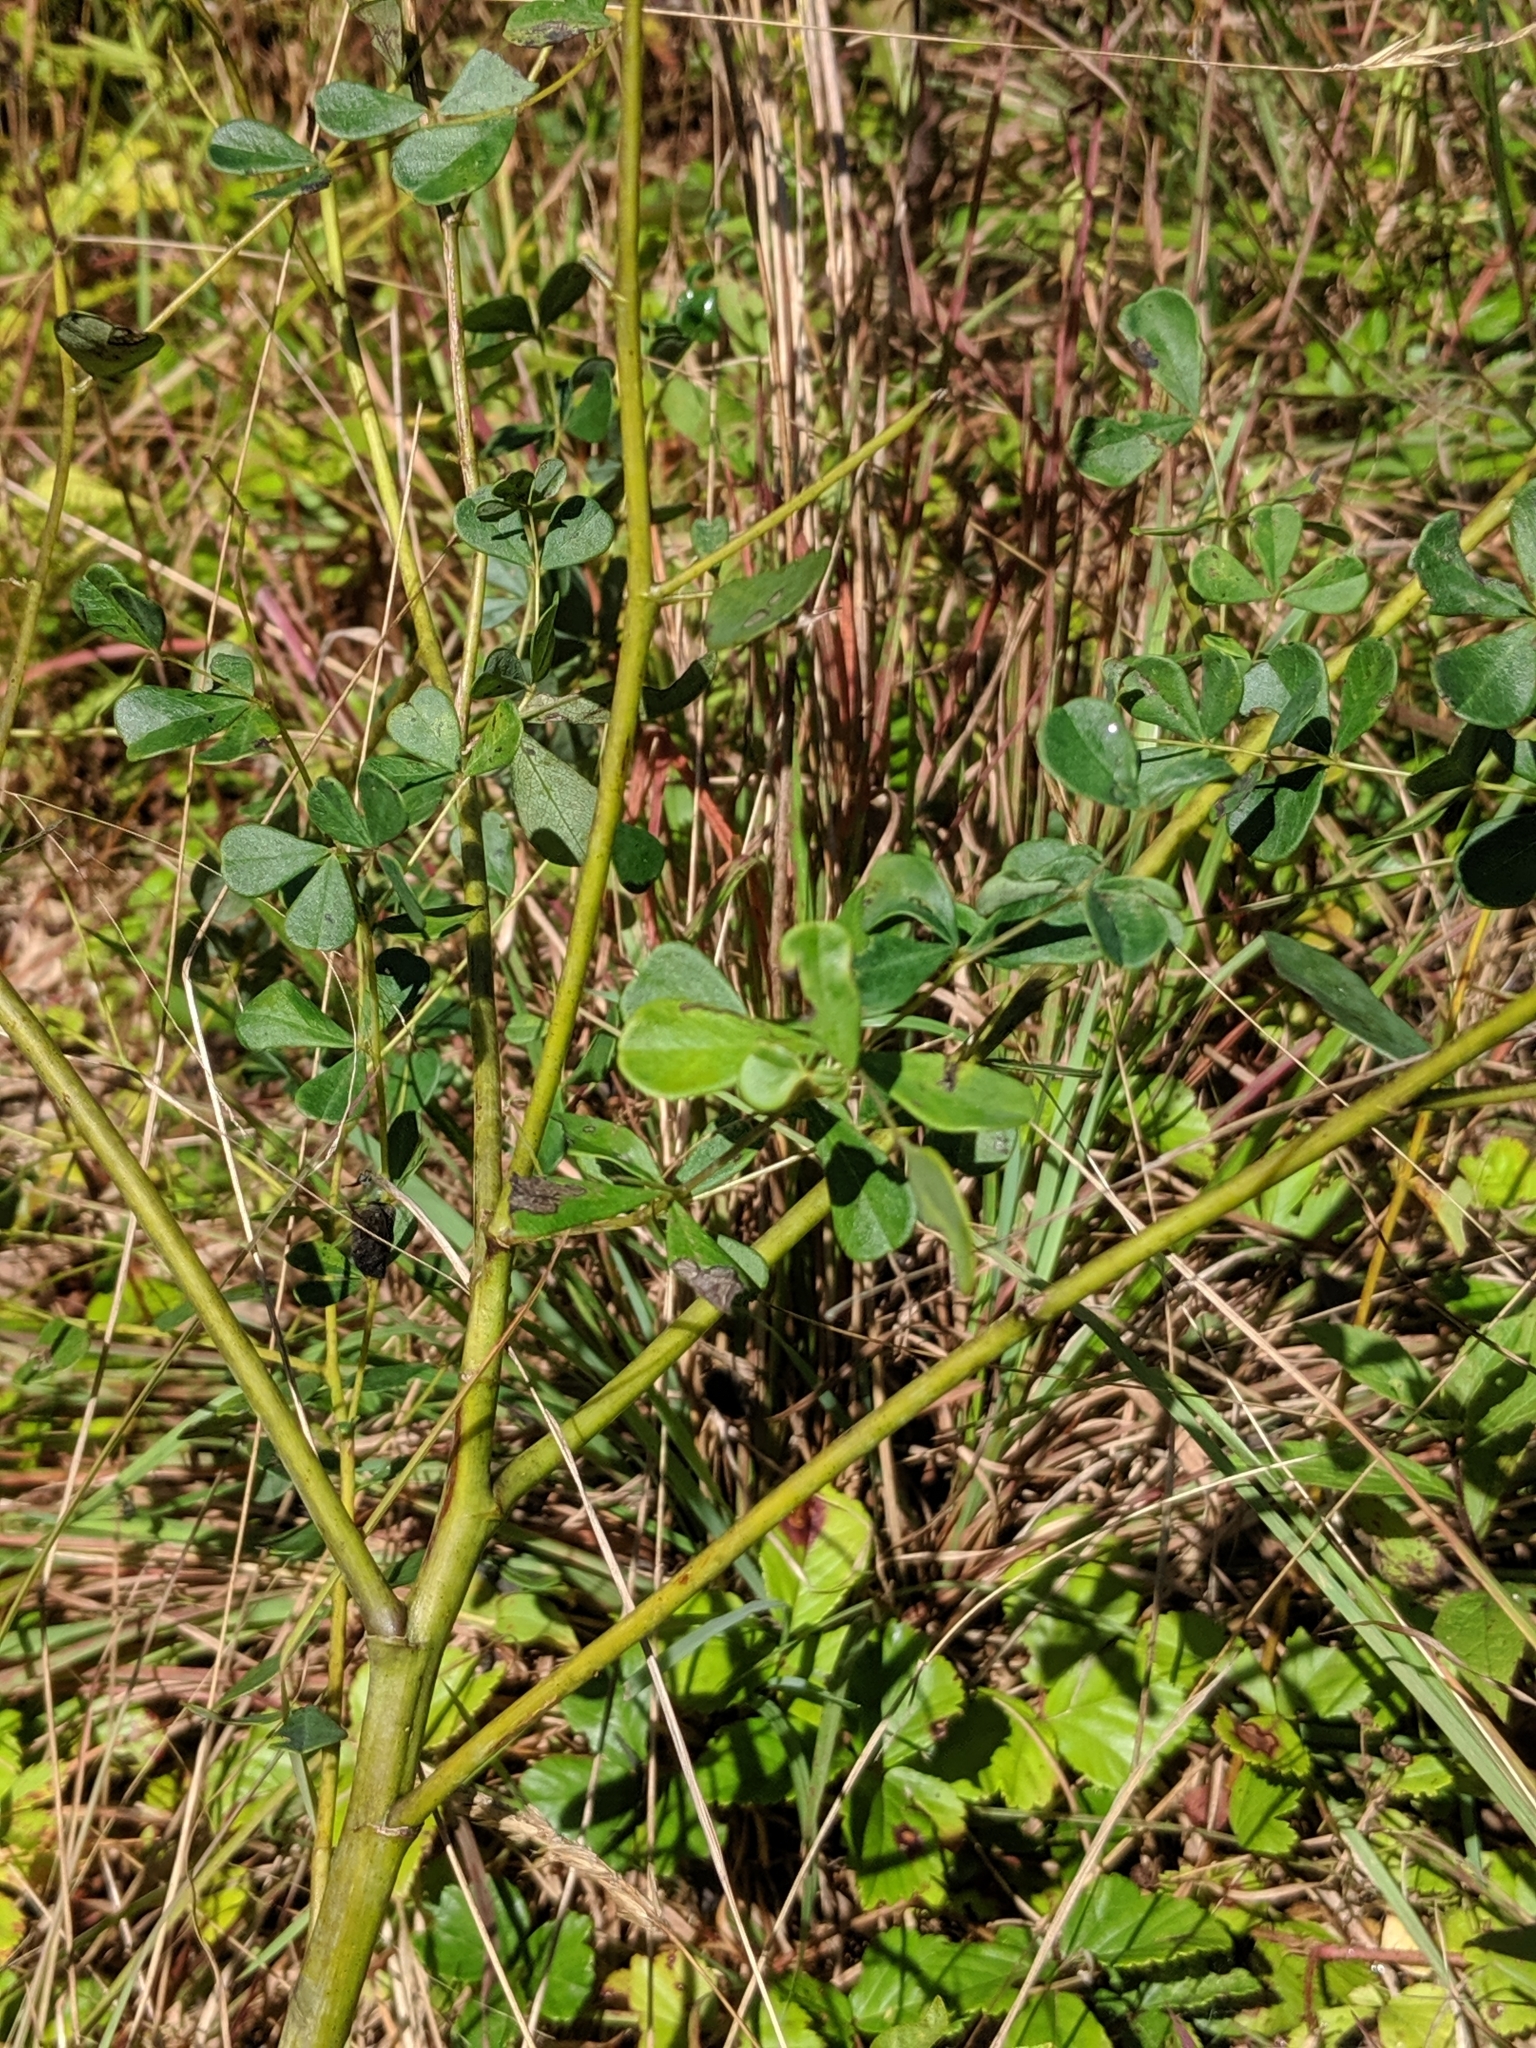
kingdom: Plantae
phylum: Tracheophyta
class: Magnoliopsida
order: Fabales
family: Fabaceae
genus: Baptisia
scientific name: Baptisia tinctoria
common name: Wild indigo
